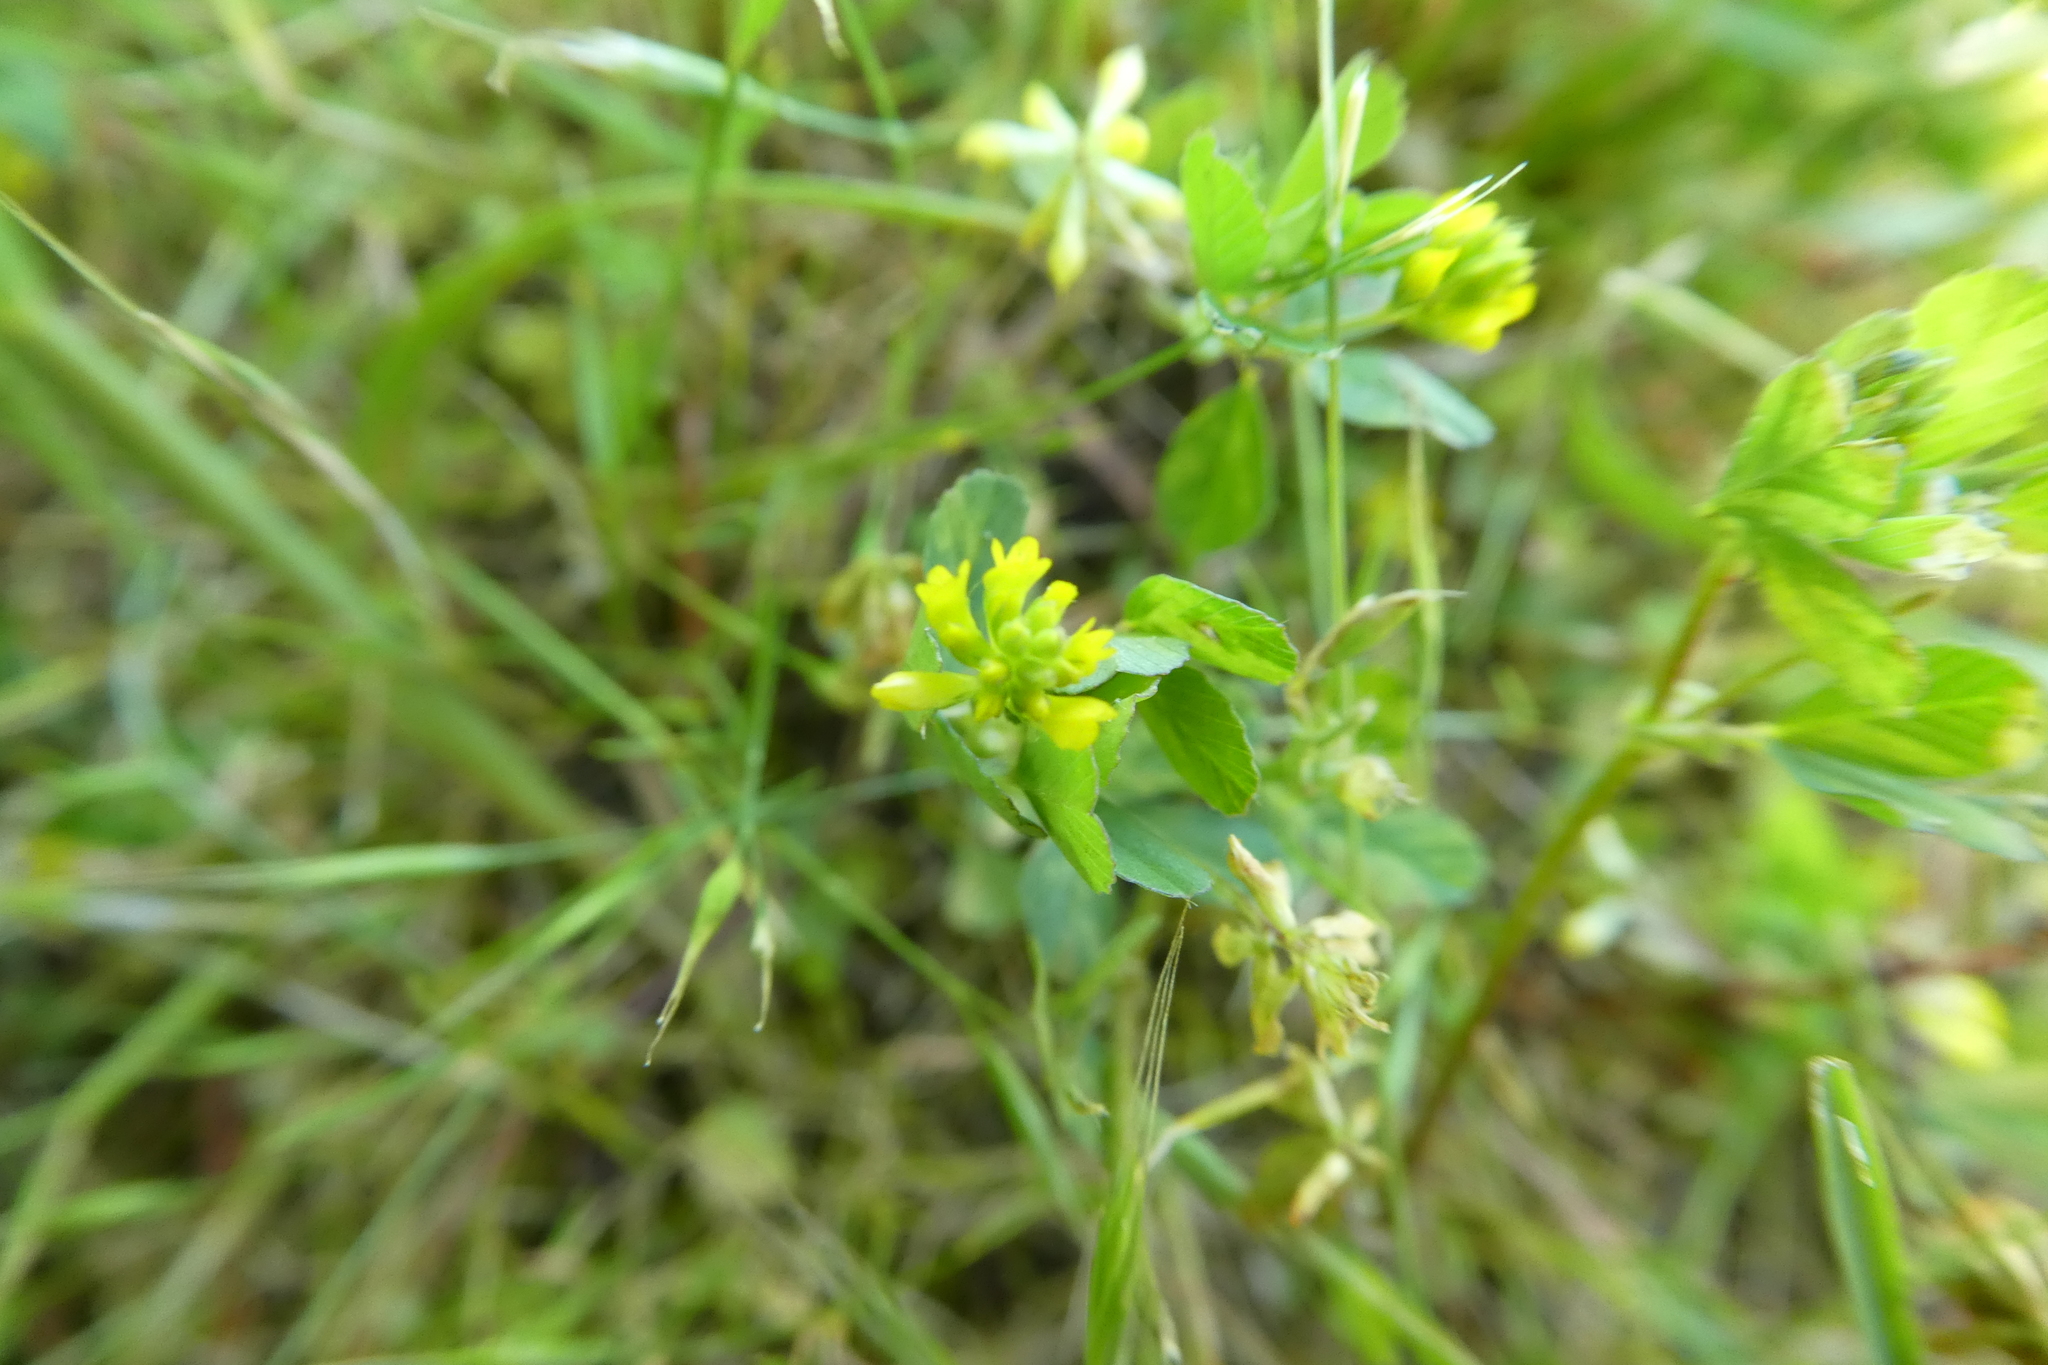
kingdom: Plantae
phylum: Tracheophyta
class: Magnoliopsida
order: Fabales
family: Fabaceae
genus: Trifolium
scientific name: Trifolium dubium
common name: Suckling clover
